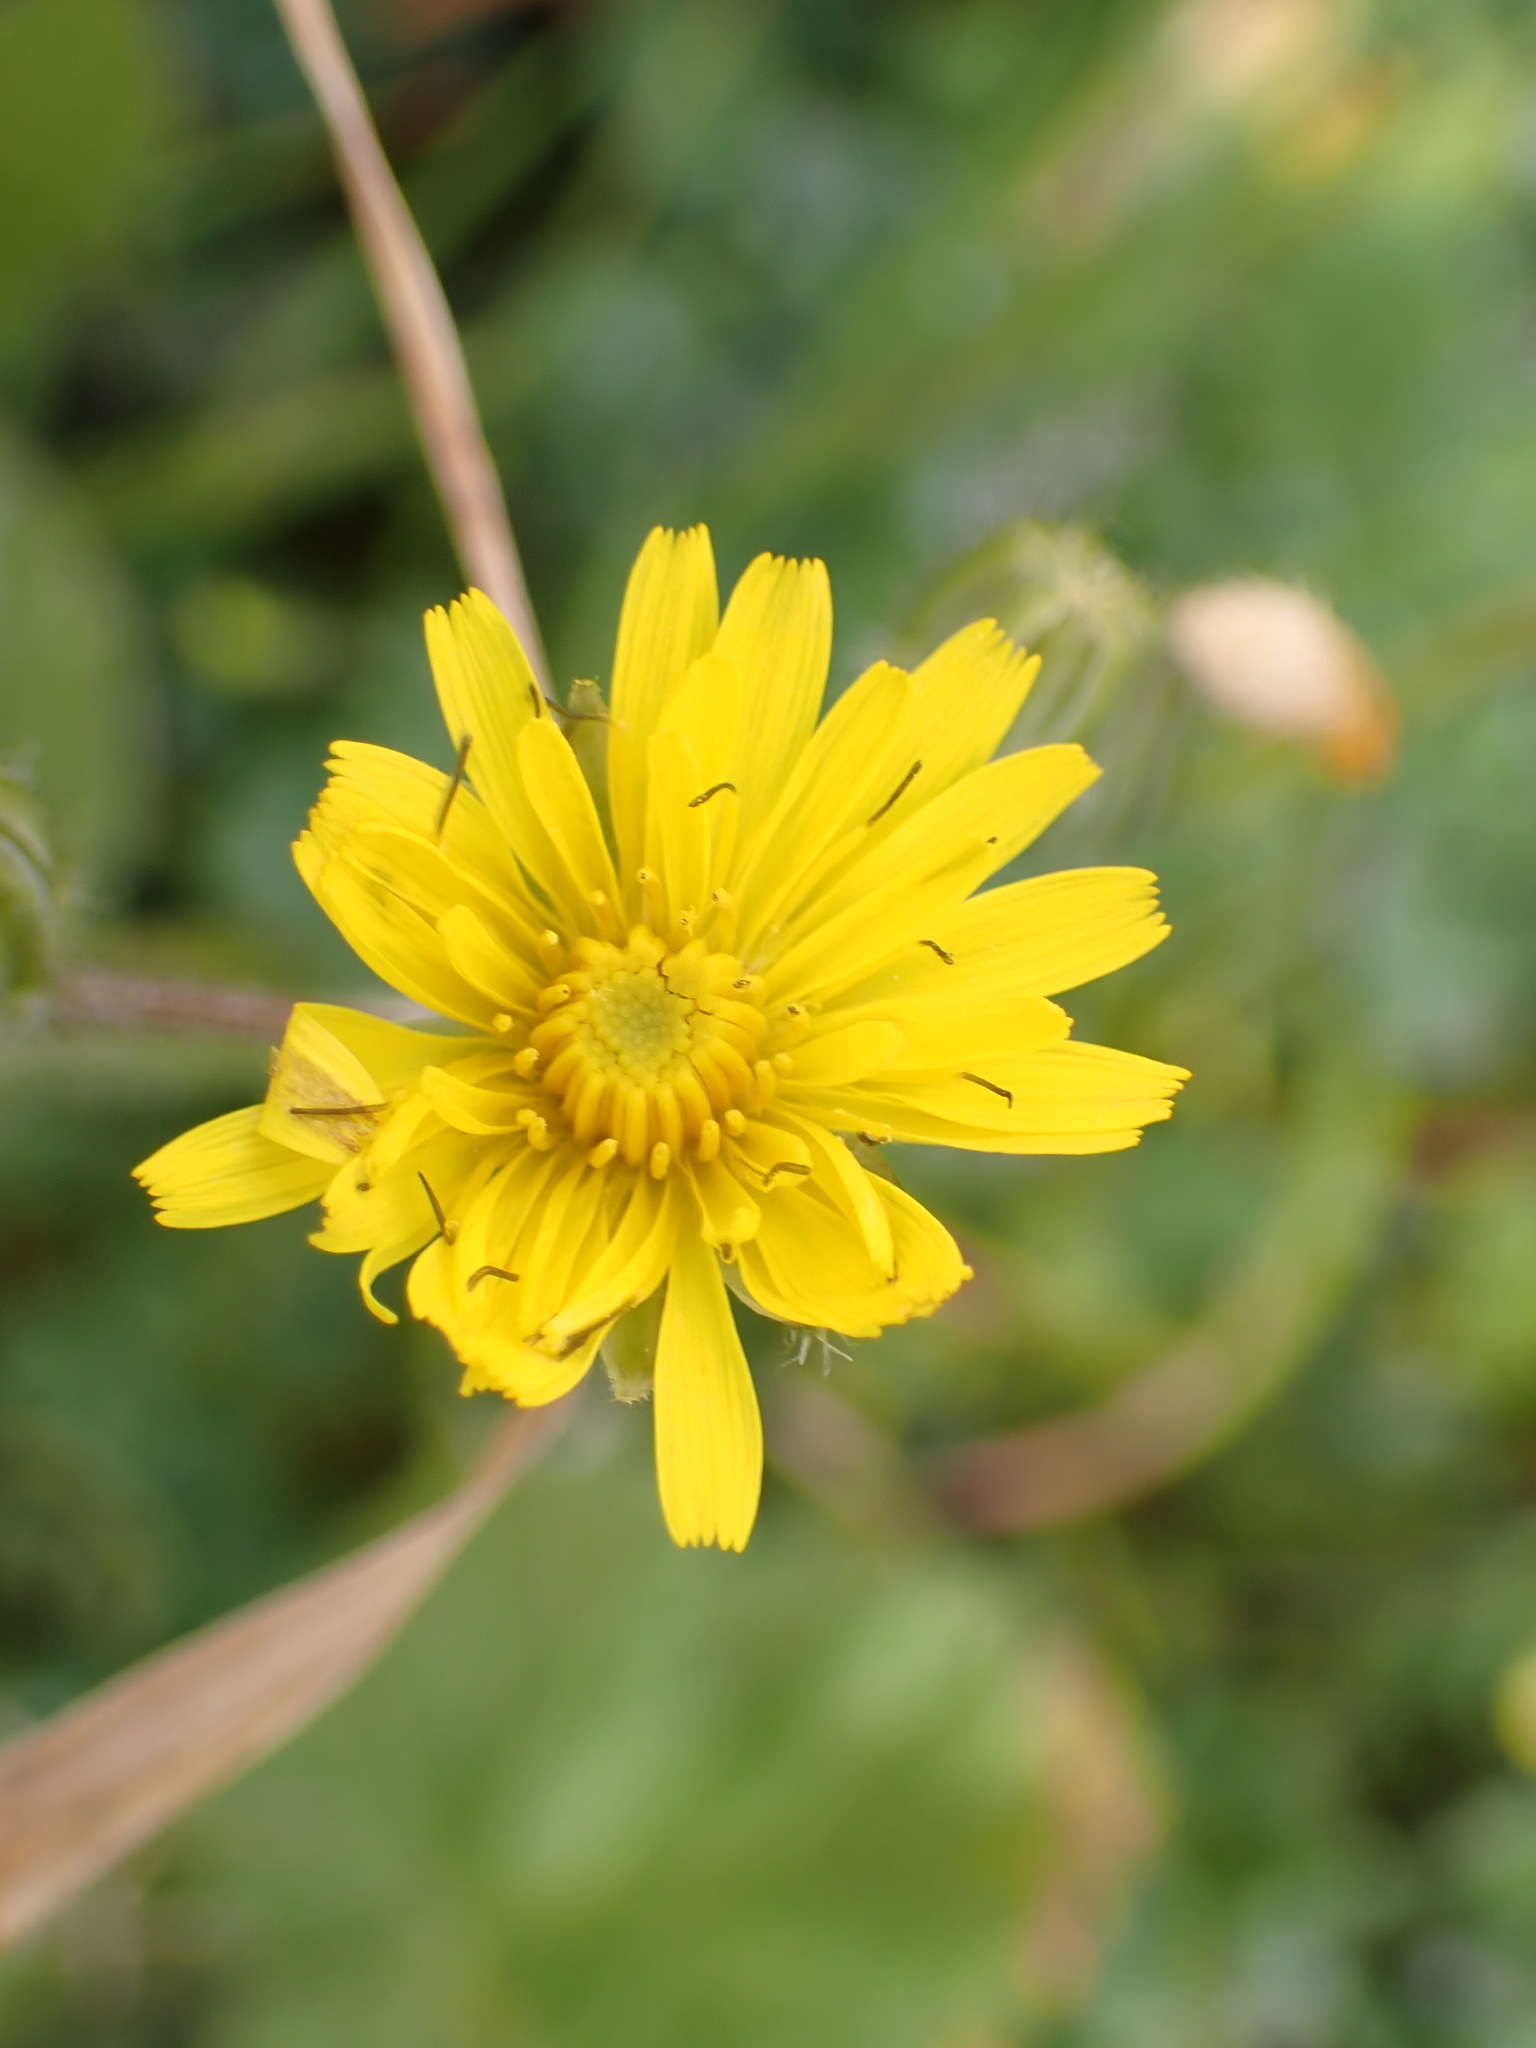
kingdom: Plantae
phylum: Tracheophyta
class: Magnoliopsida
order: Asterales
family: Asteraceae
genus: Crepis
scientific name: Crepis sancta
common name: Hawk's-beard
